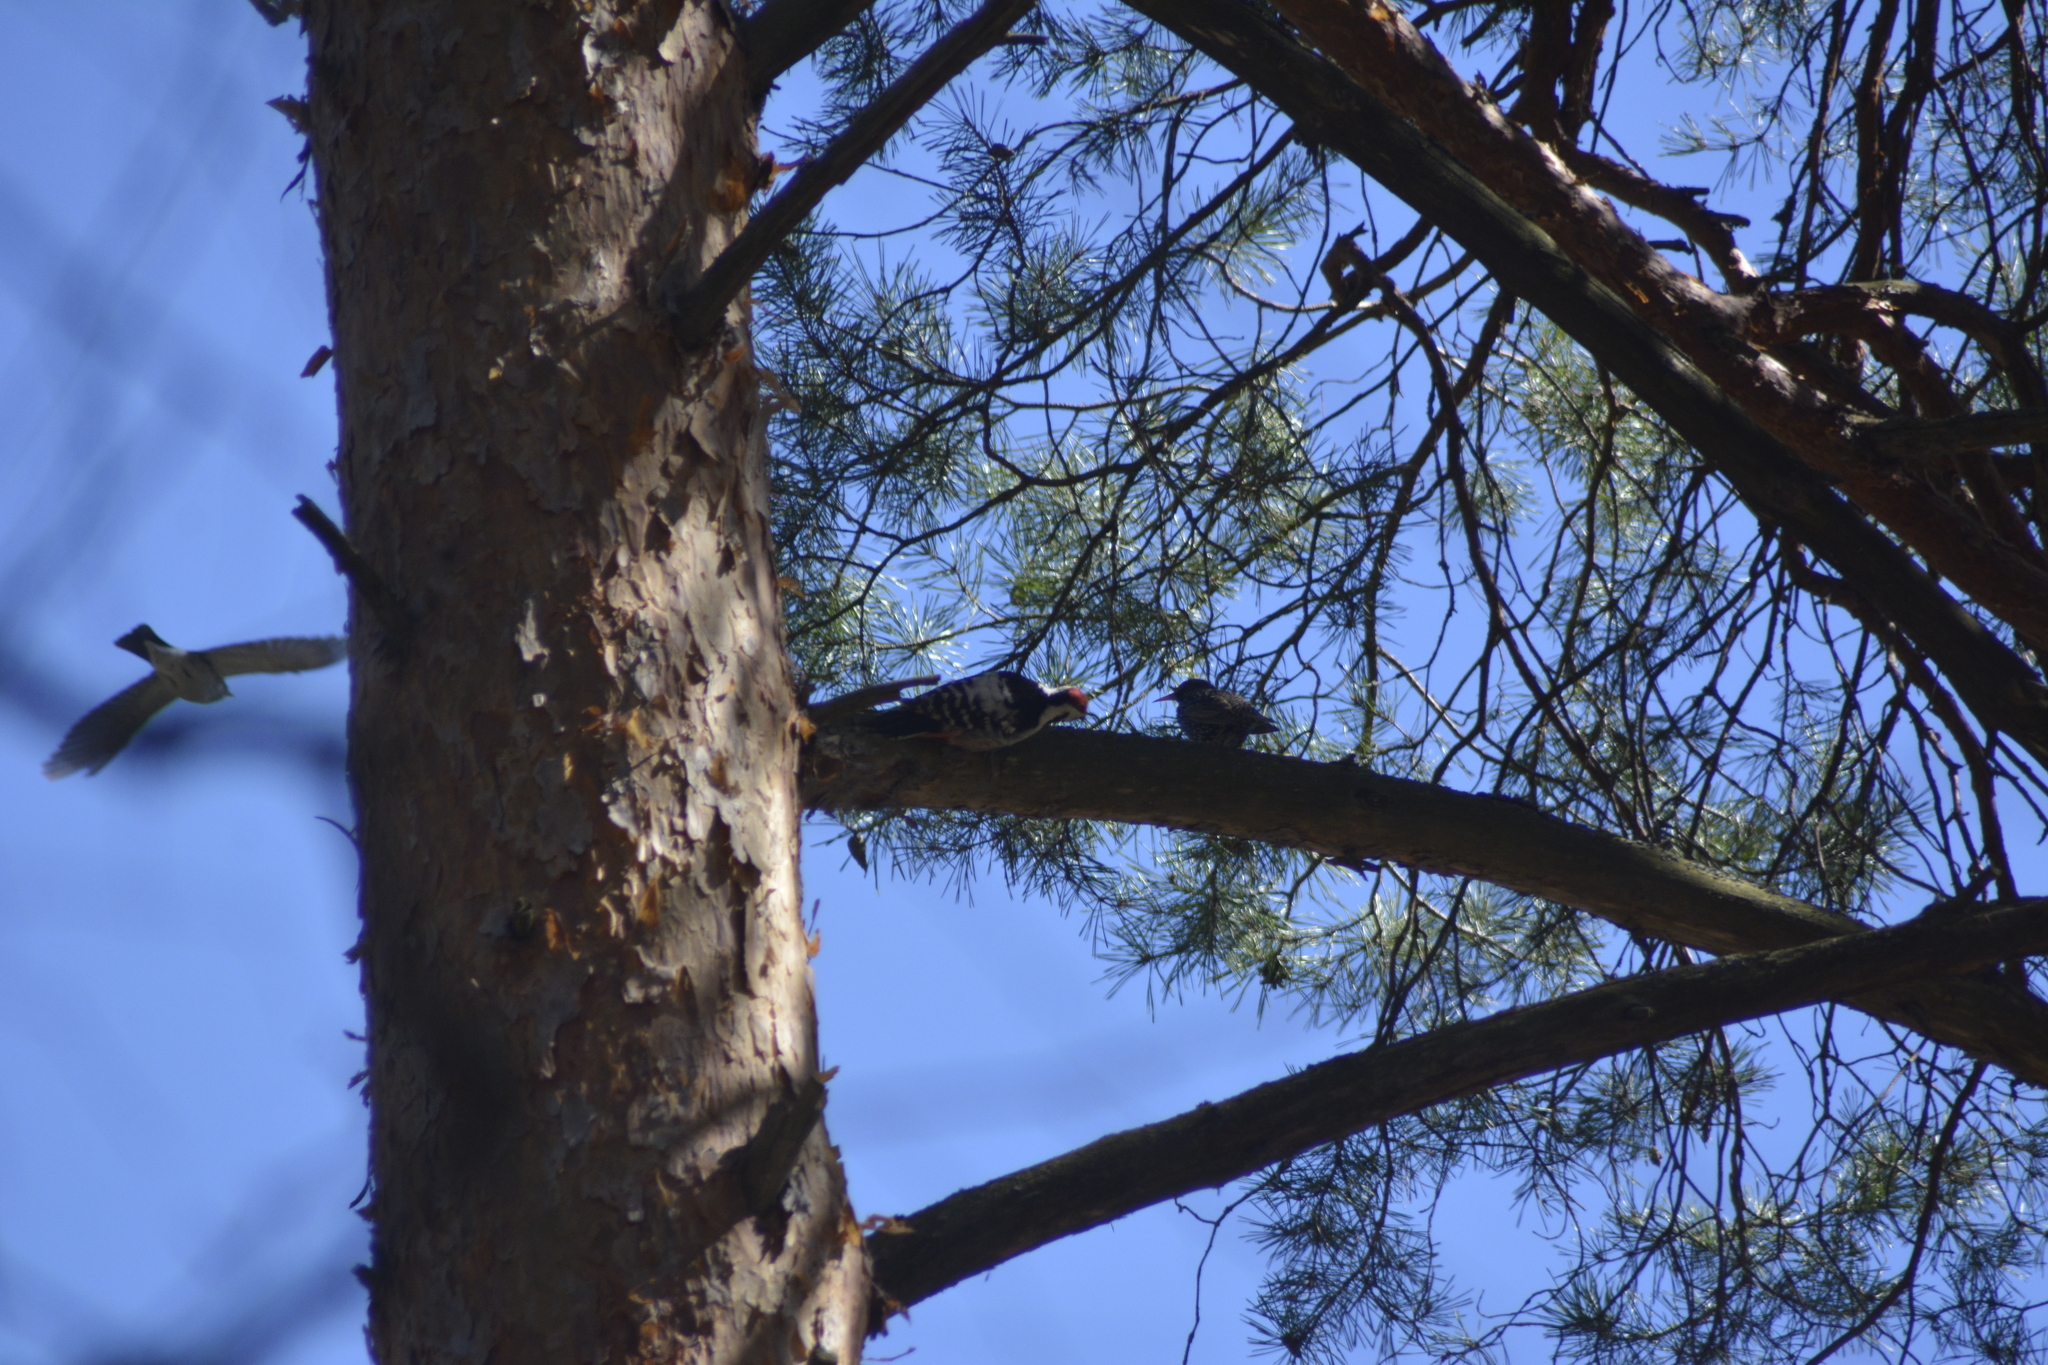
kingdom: Animalia
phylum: Chordata
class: Aves
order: Piciformes
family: Picidae
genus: Dendrocopos
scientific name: Dendrocopos leucotos
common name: White-backed woodpecker
